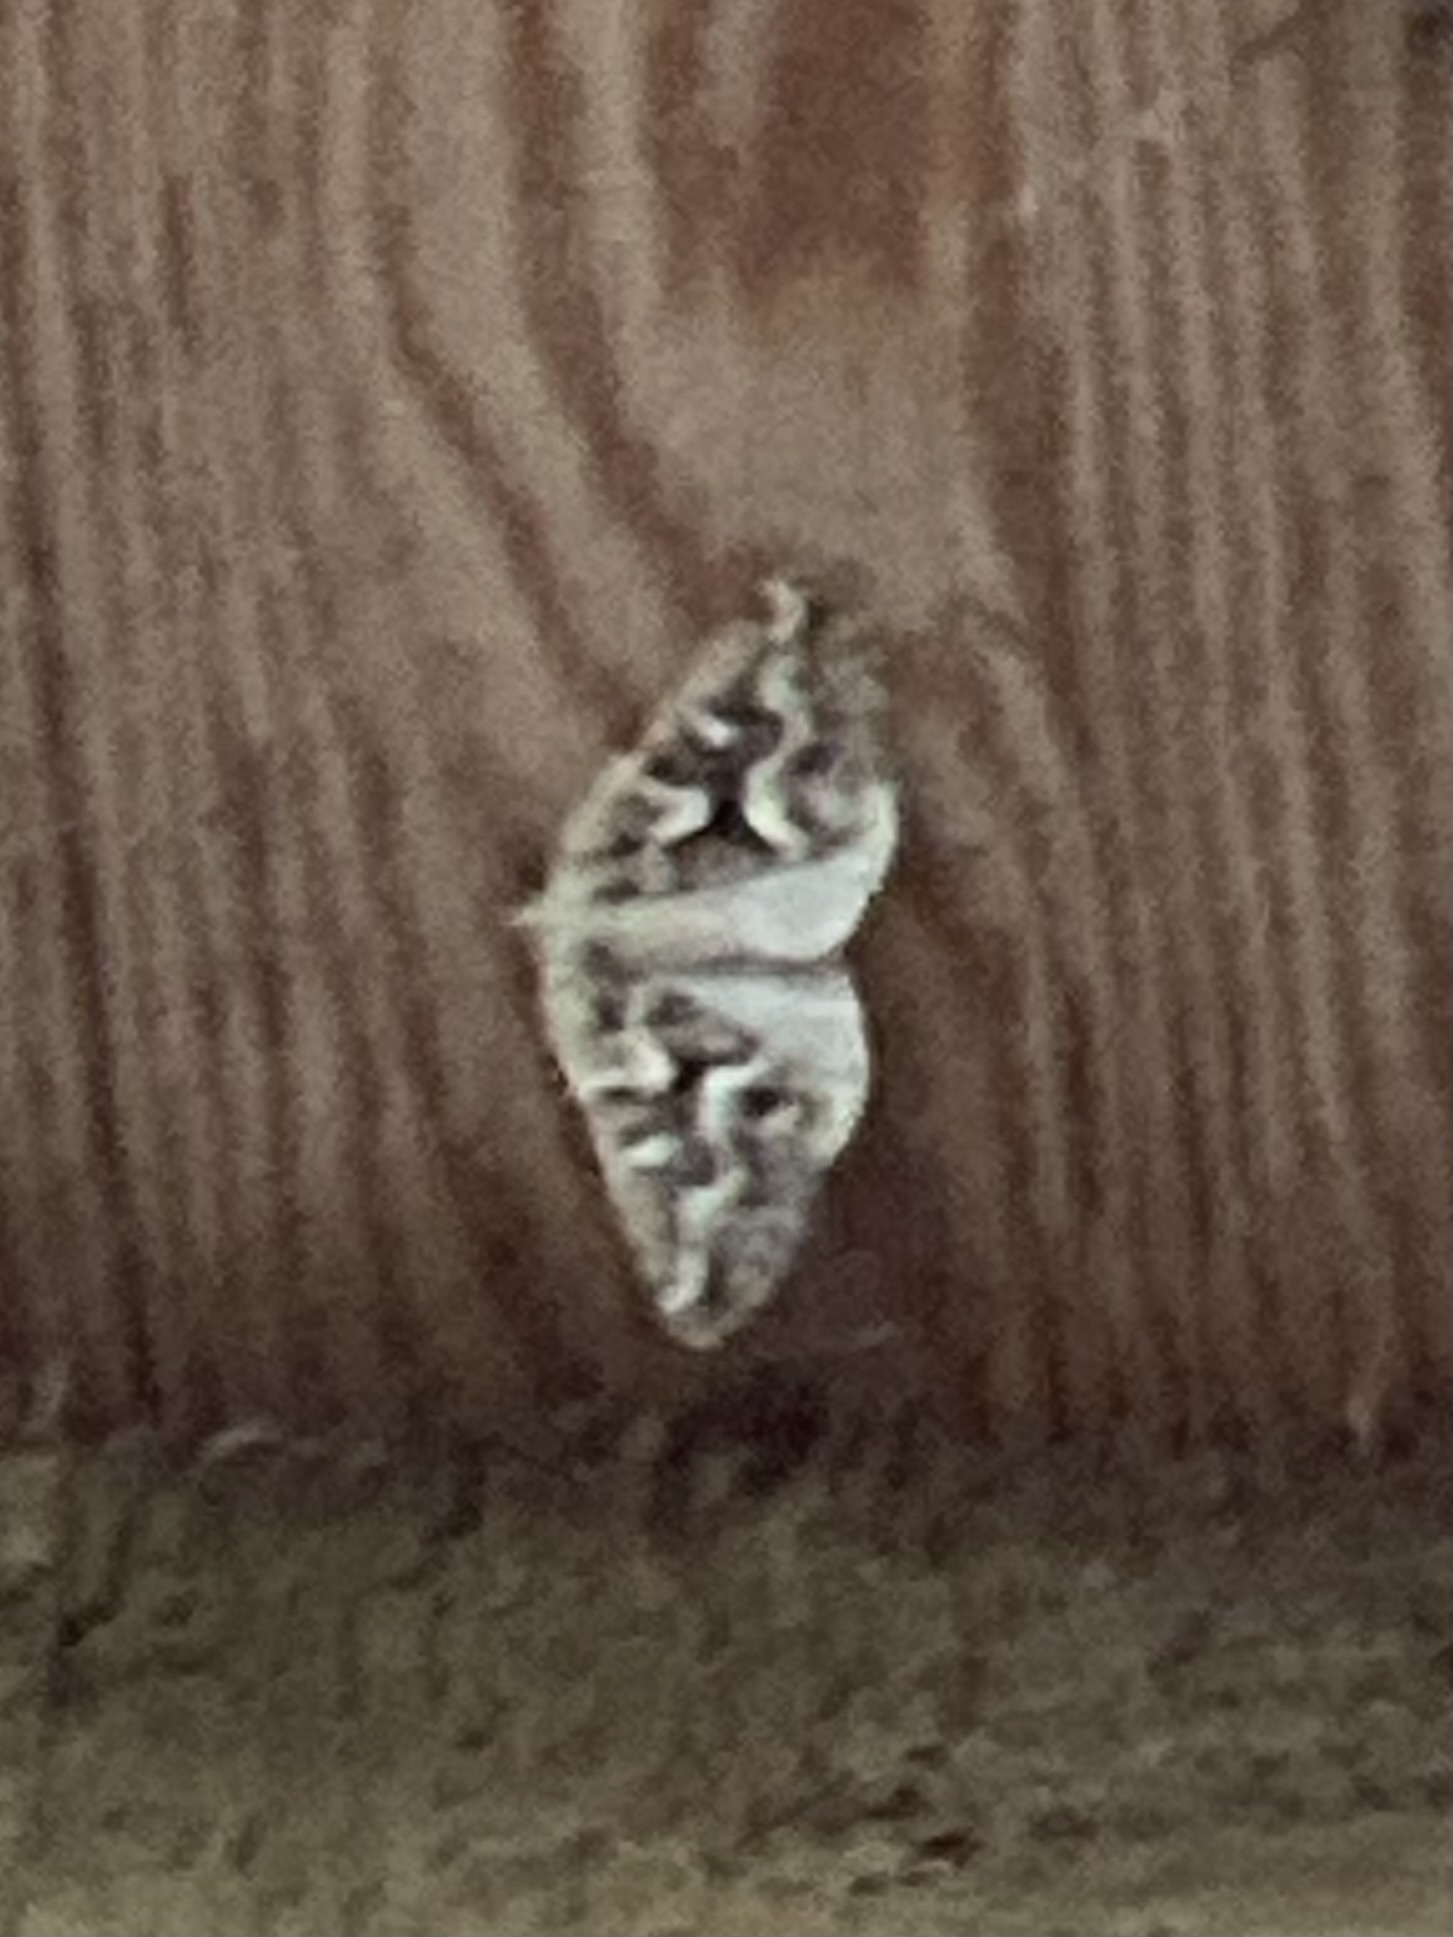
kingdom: Animalia
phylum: Arthropoda
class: Insecta
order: Lepidoptera
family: Geometridae
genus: Caripeta
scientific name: Caripeta divisata
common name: Gray spruce looper
